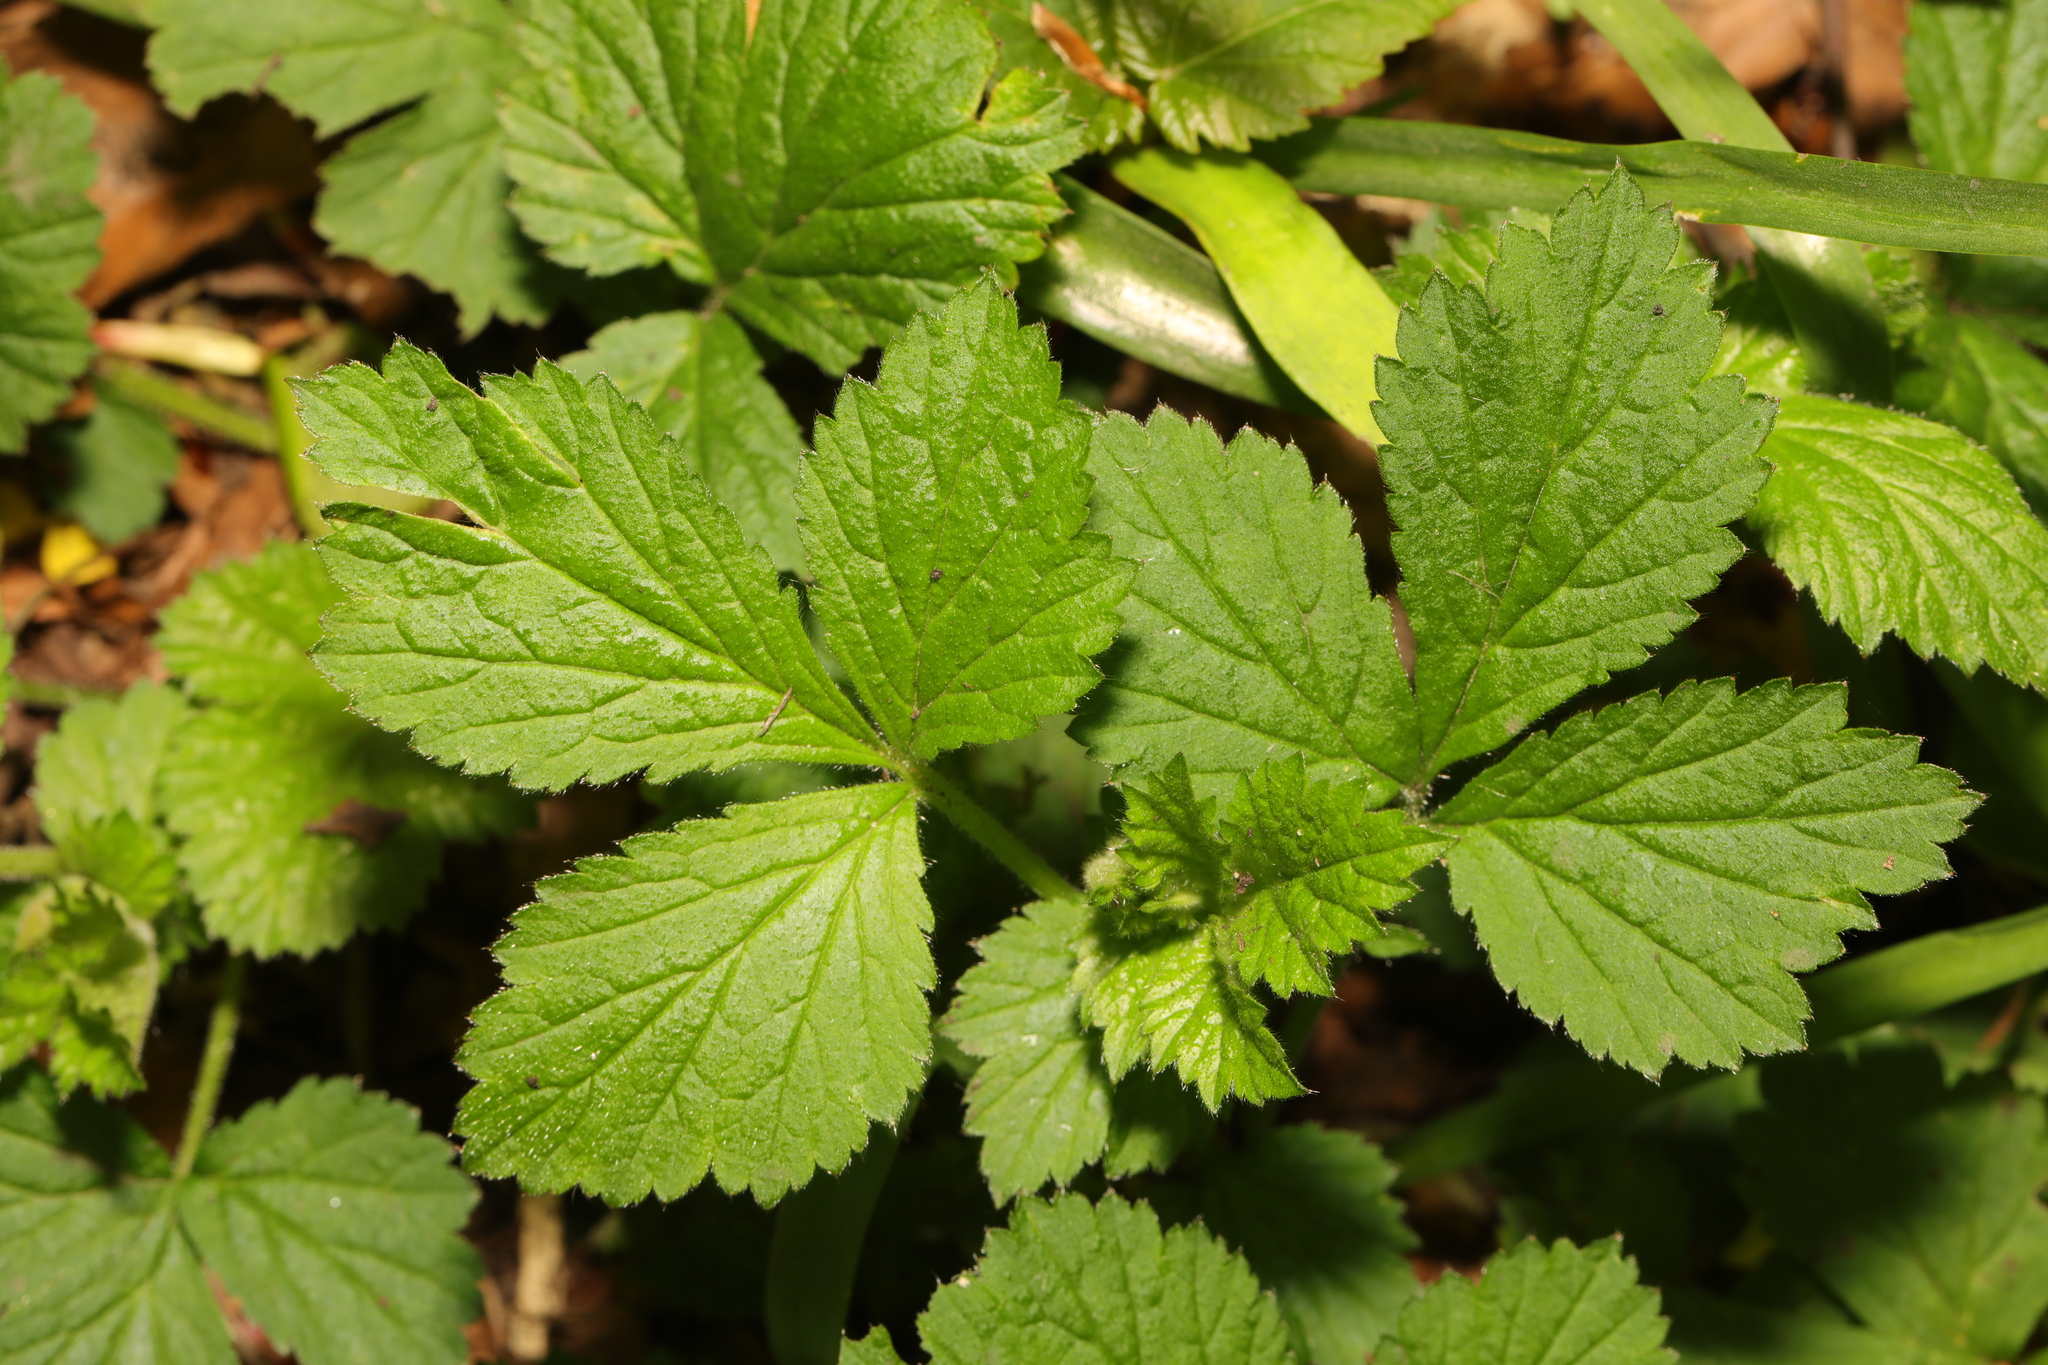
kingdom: Plantae
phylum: Tracheophyta
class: Magnoliopsida
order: Rosales
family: Rosaceae
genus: Geum
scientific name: Geum urbanum
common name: Wood avens
